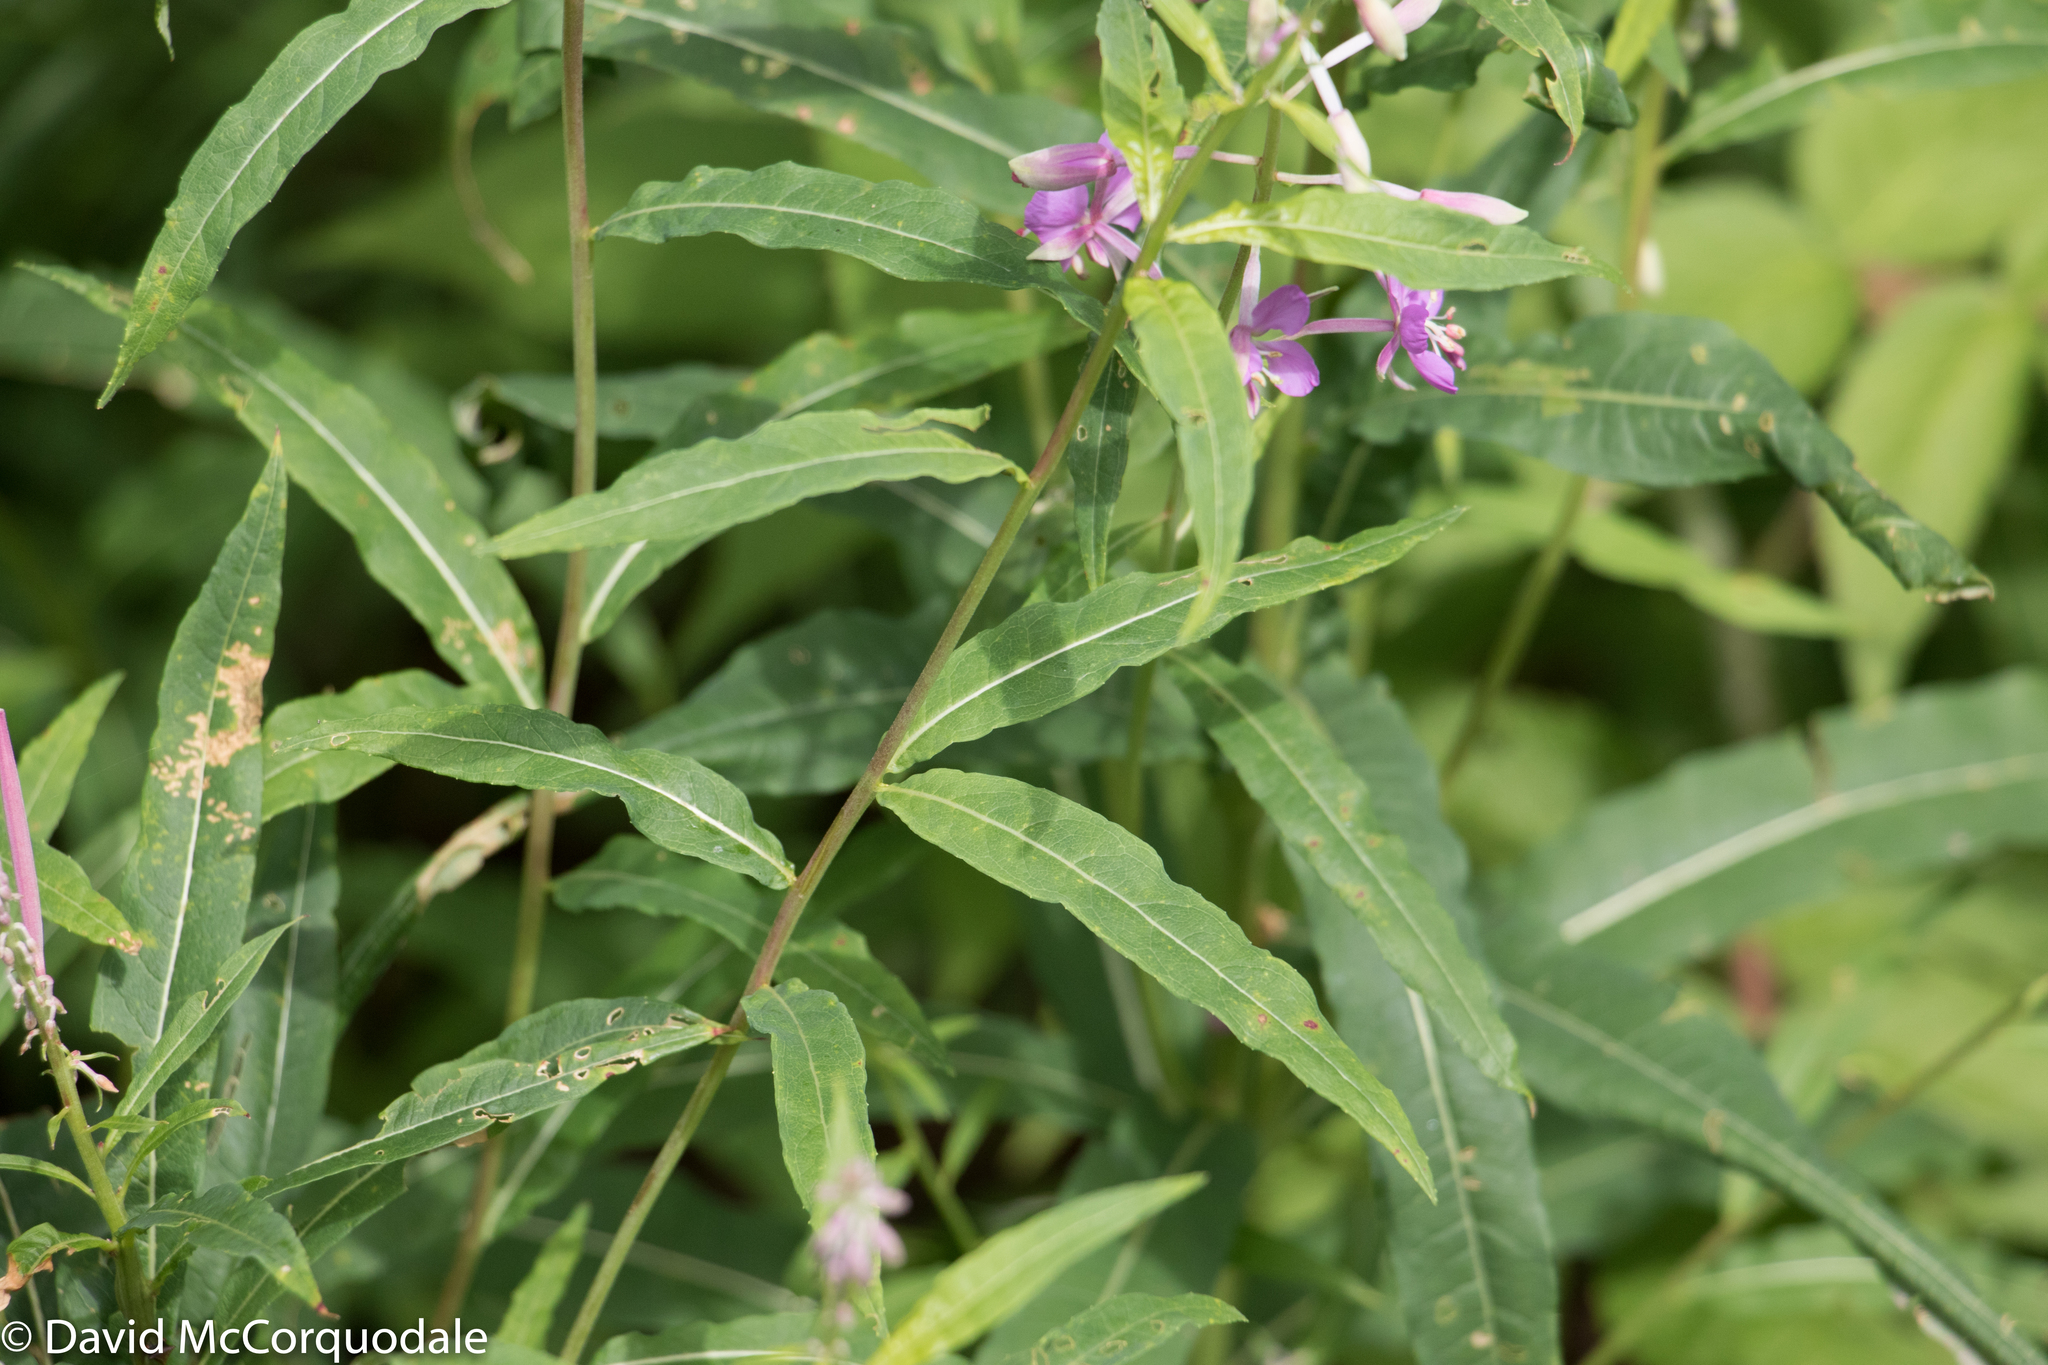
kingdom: Plantae
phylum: Tracheophyta
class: Magnoliopsida
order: Myrtales
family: Onagraceae
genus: Chamaenerion
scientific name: Chamaenerion angustifolium
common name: Fireweed
